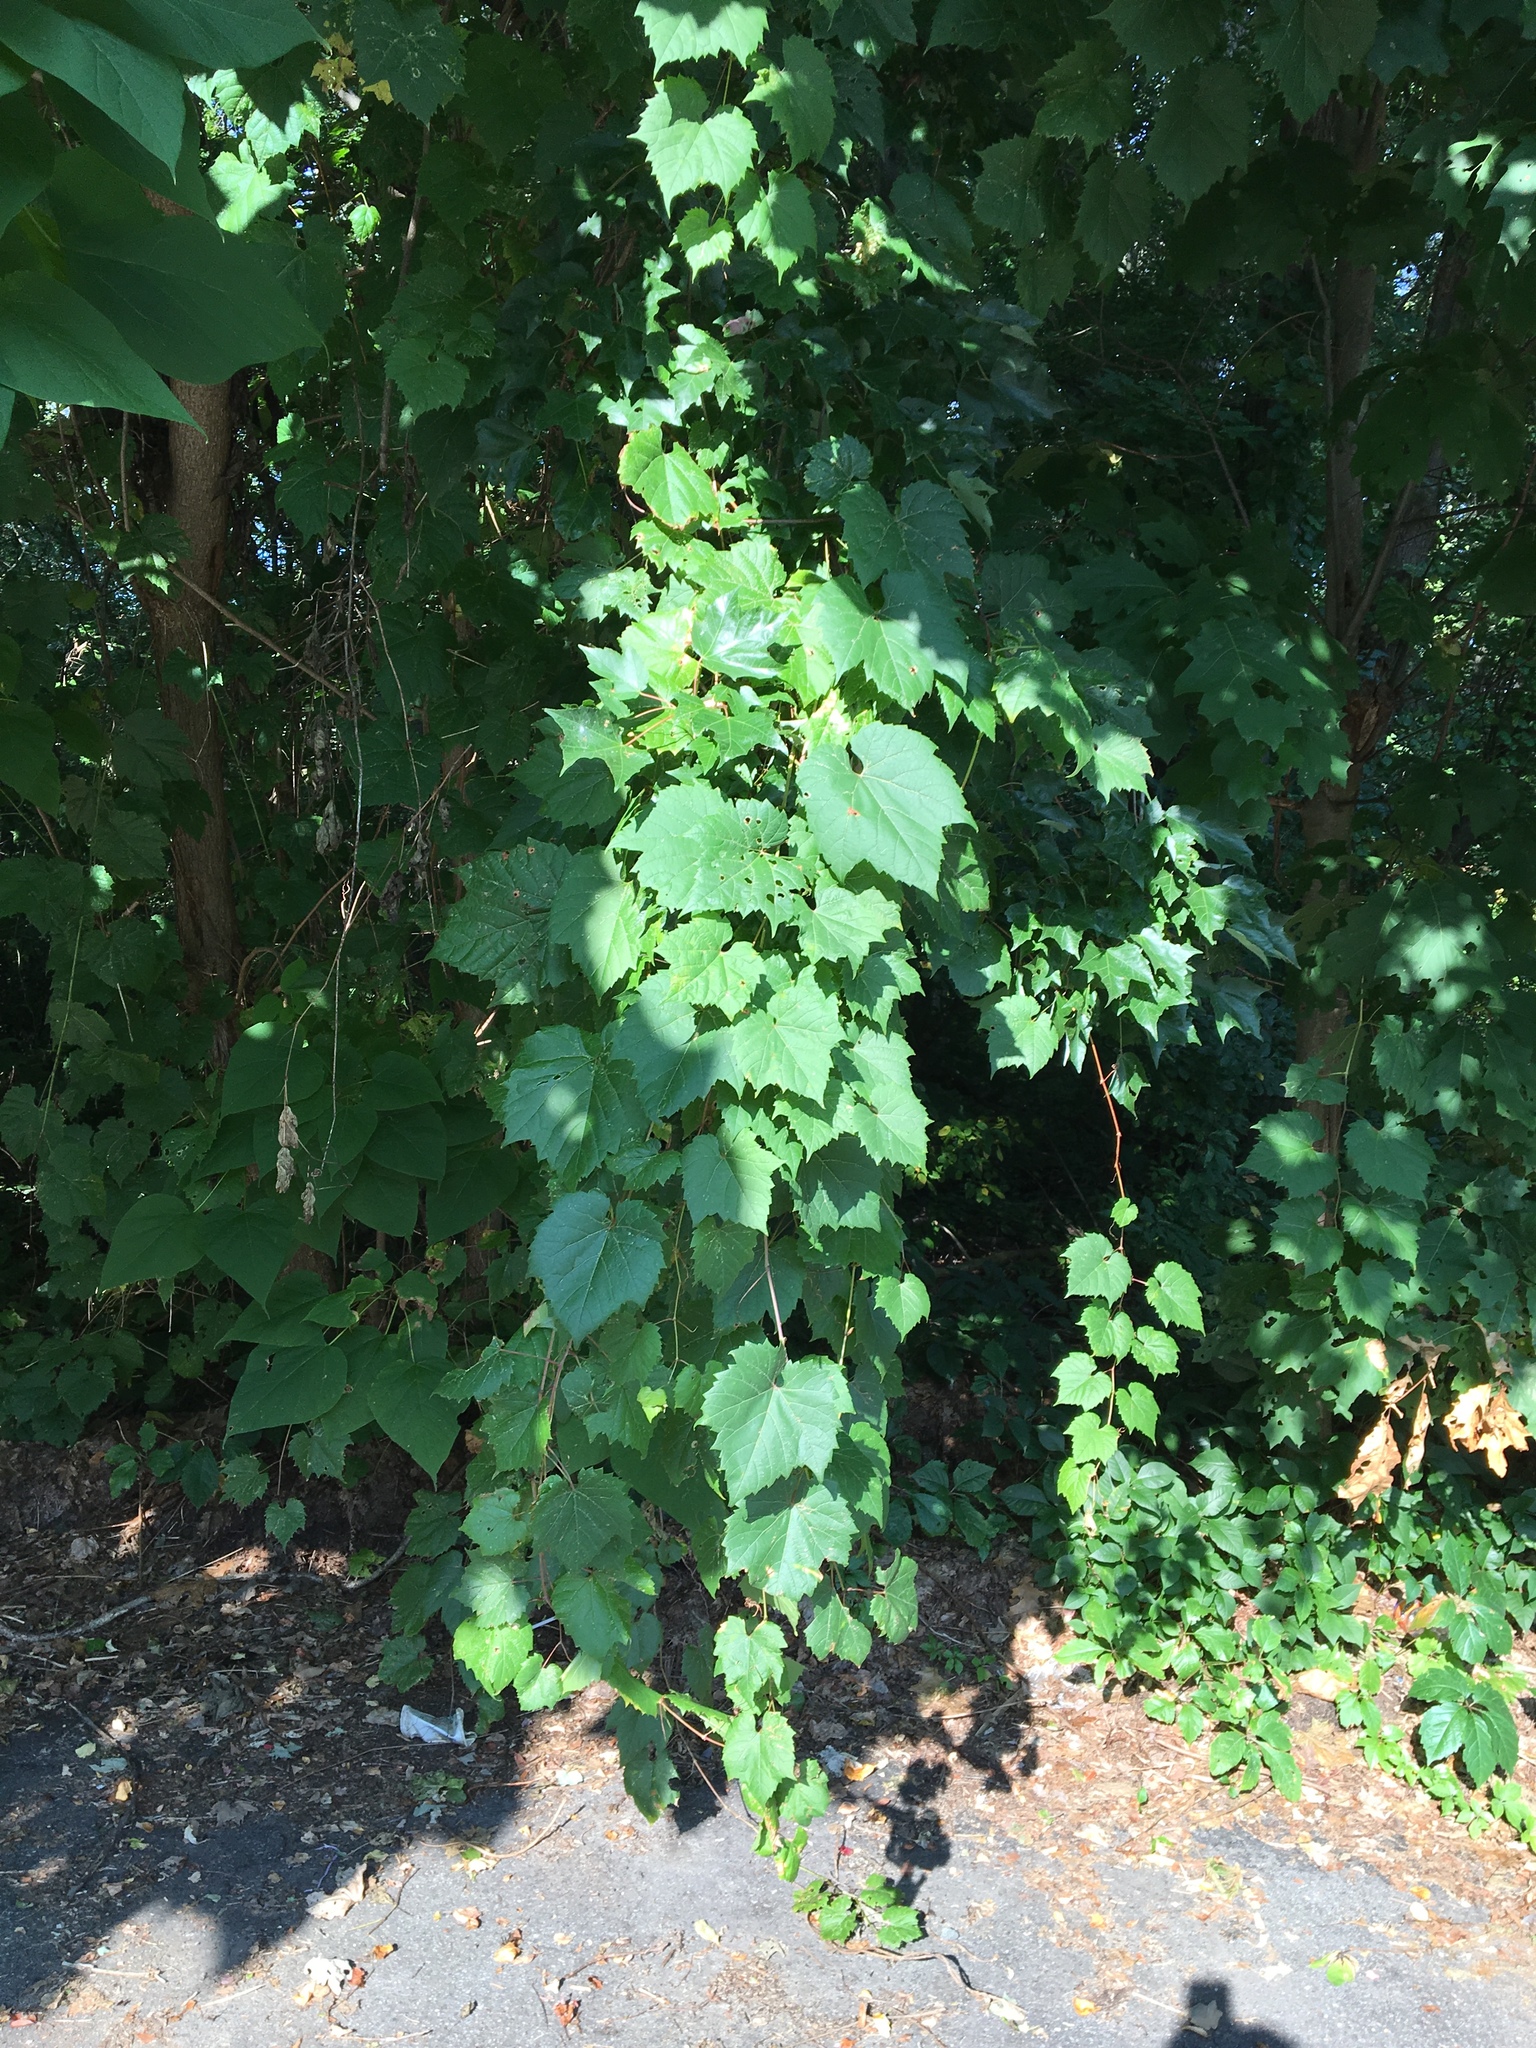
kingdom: Plantae
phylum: Tracheophyta
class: Magnoliopsida
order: Vitales
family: Vitaceae
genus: Vitis
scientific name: Vitis riparia
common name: Frost grape
